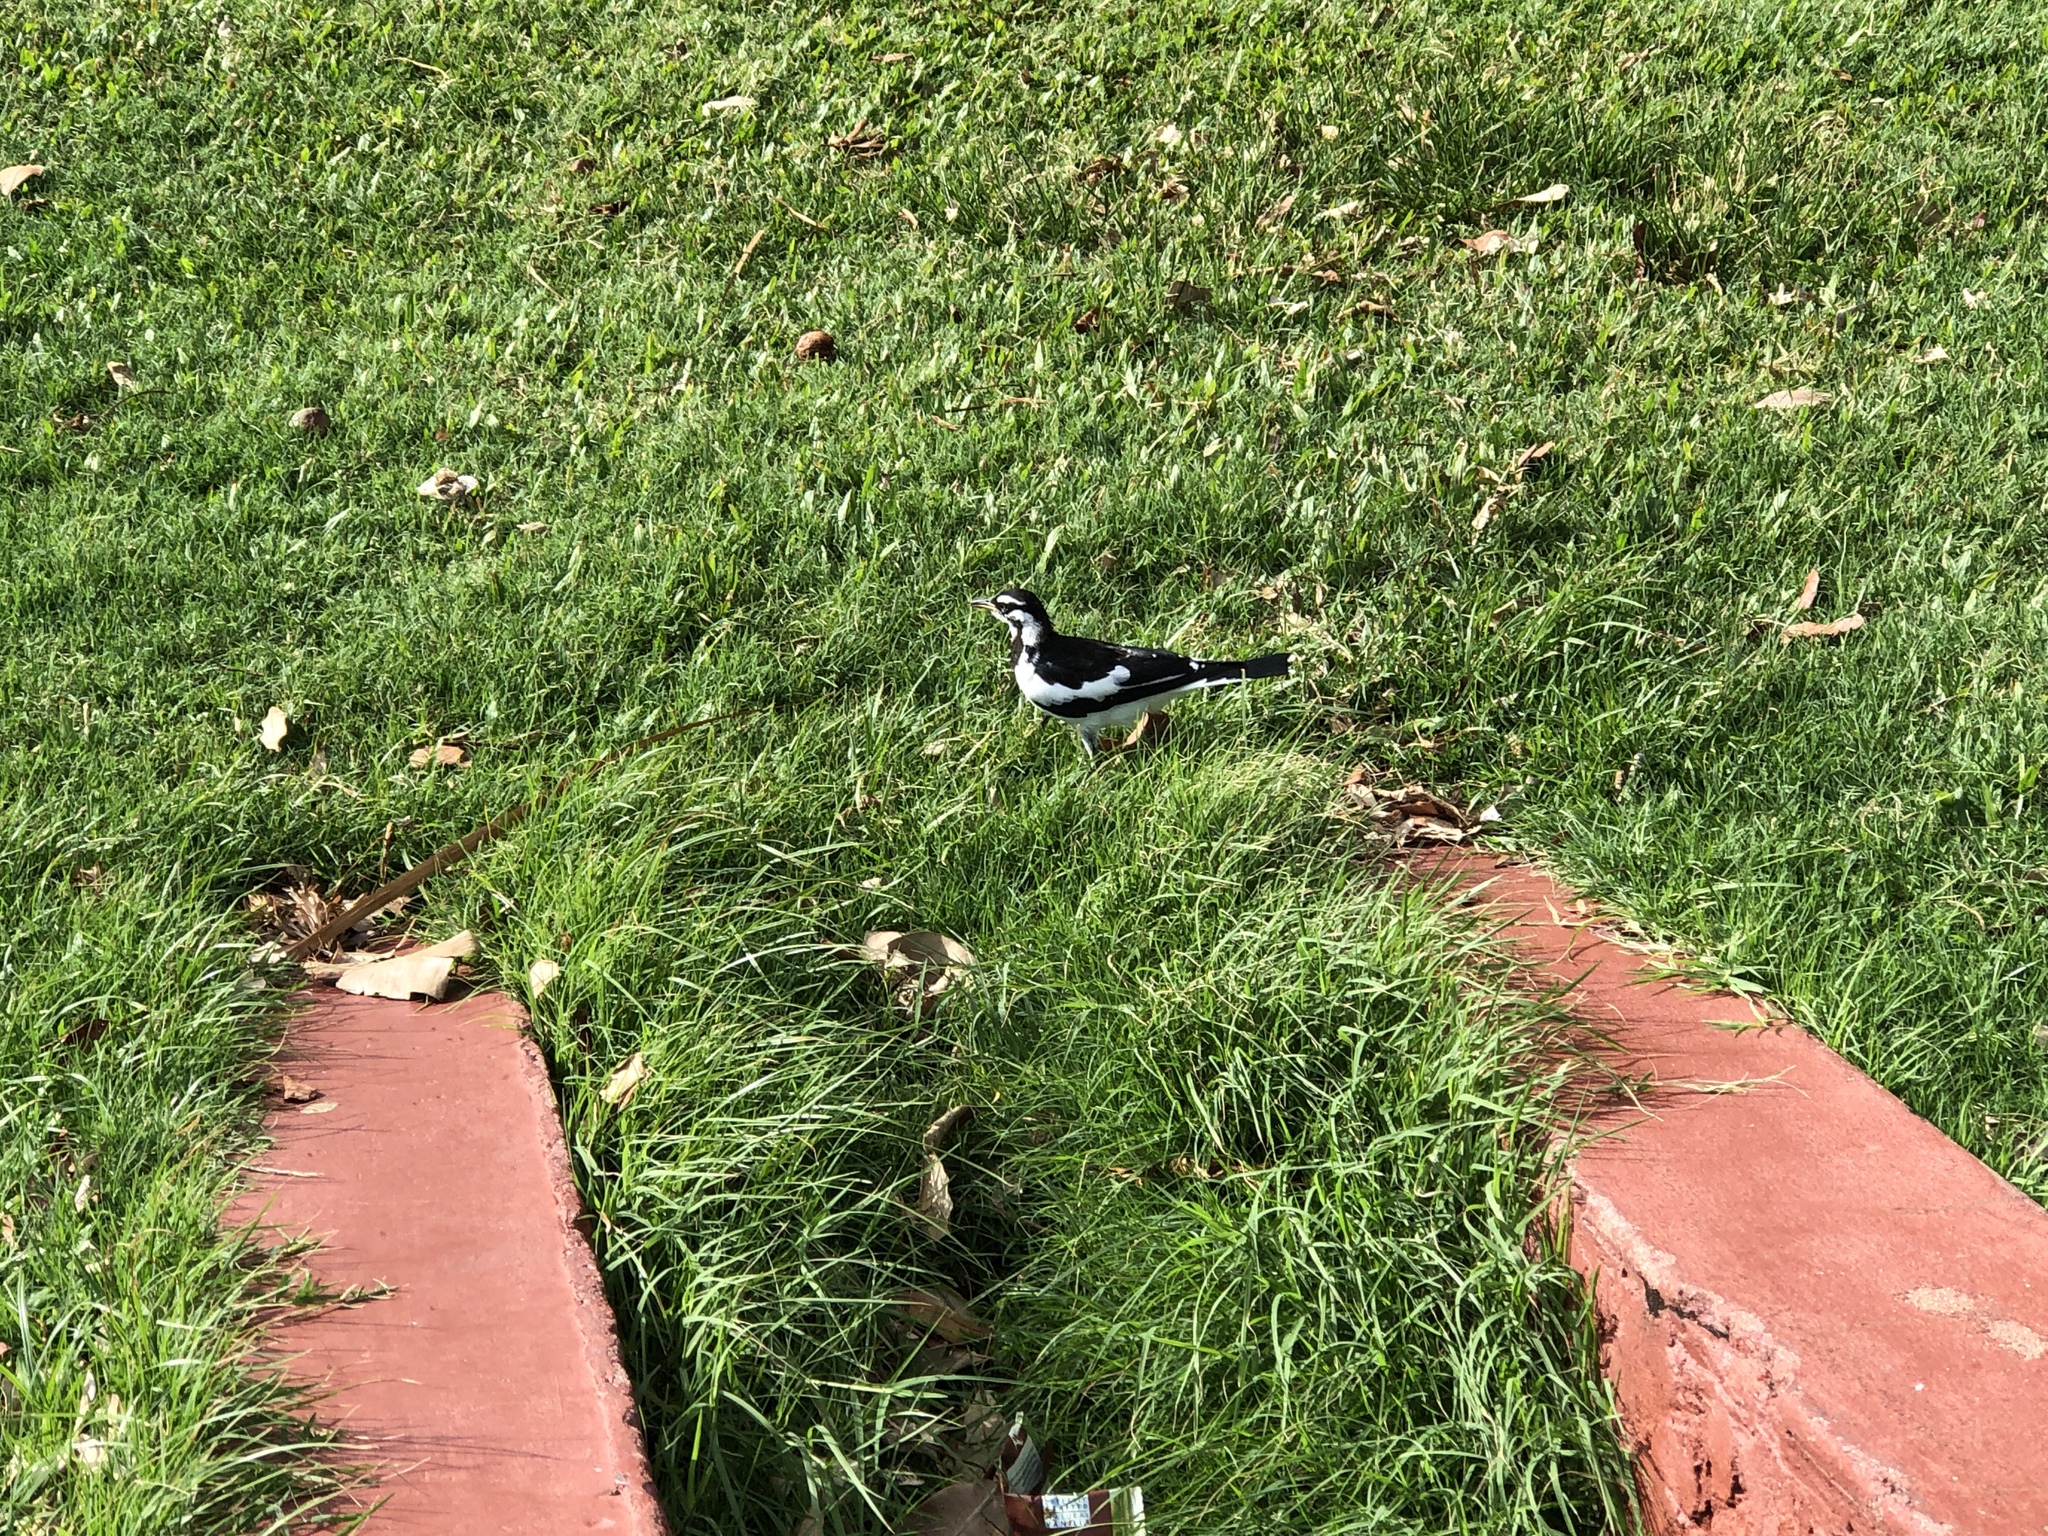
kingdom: Animalia
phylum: Chordata
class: Aves
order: Passeriformes
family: Monarchidae
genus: Grallina
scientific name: Grallina cyanoleuca
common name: Magpie-lark
